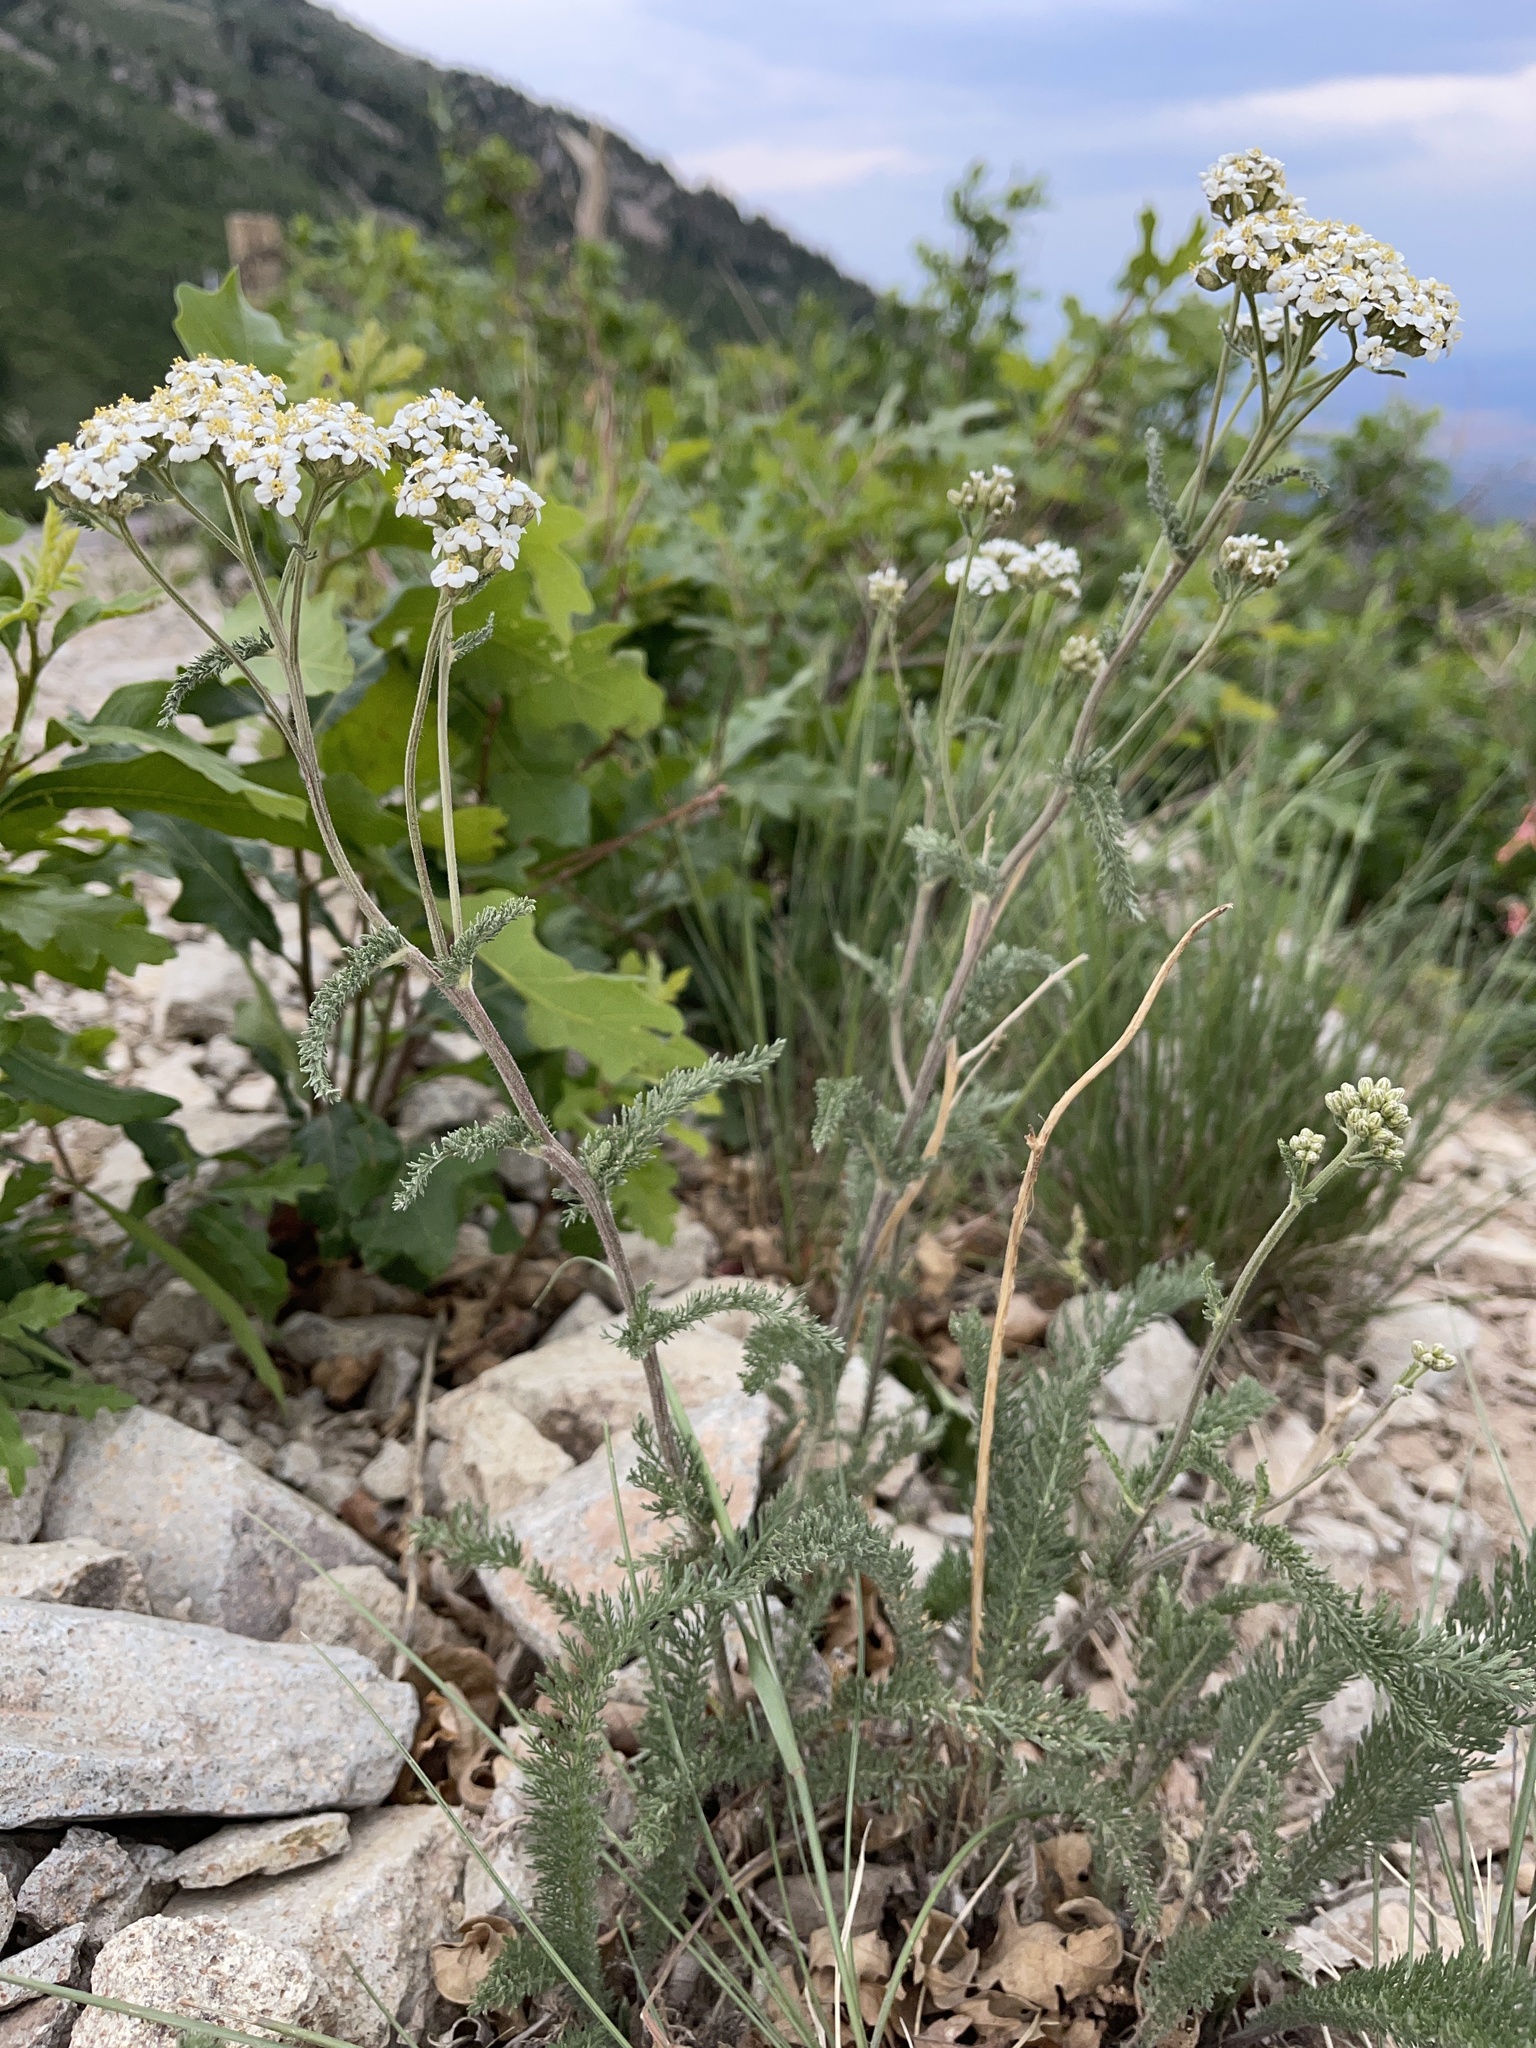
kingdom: Plantae
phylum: Tracheophyta
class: Magnoliopsida
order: Asterales
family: Asteraceae
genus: Achillea
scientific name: Achillea millefolium
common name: Yarrow
